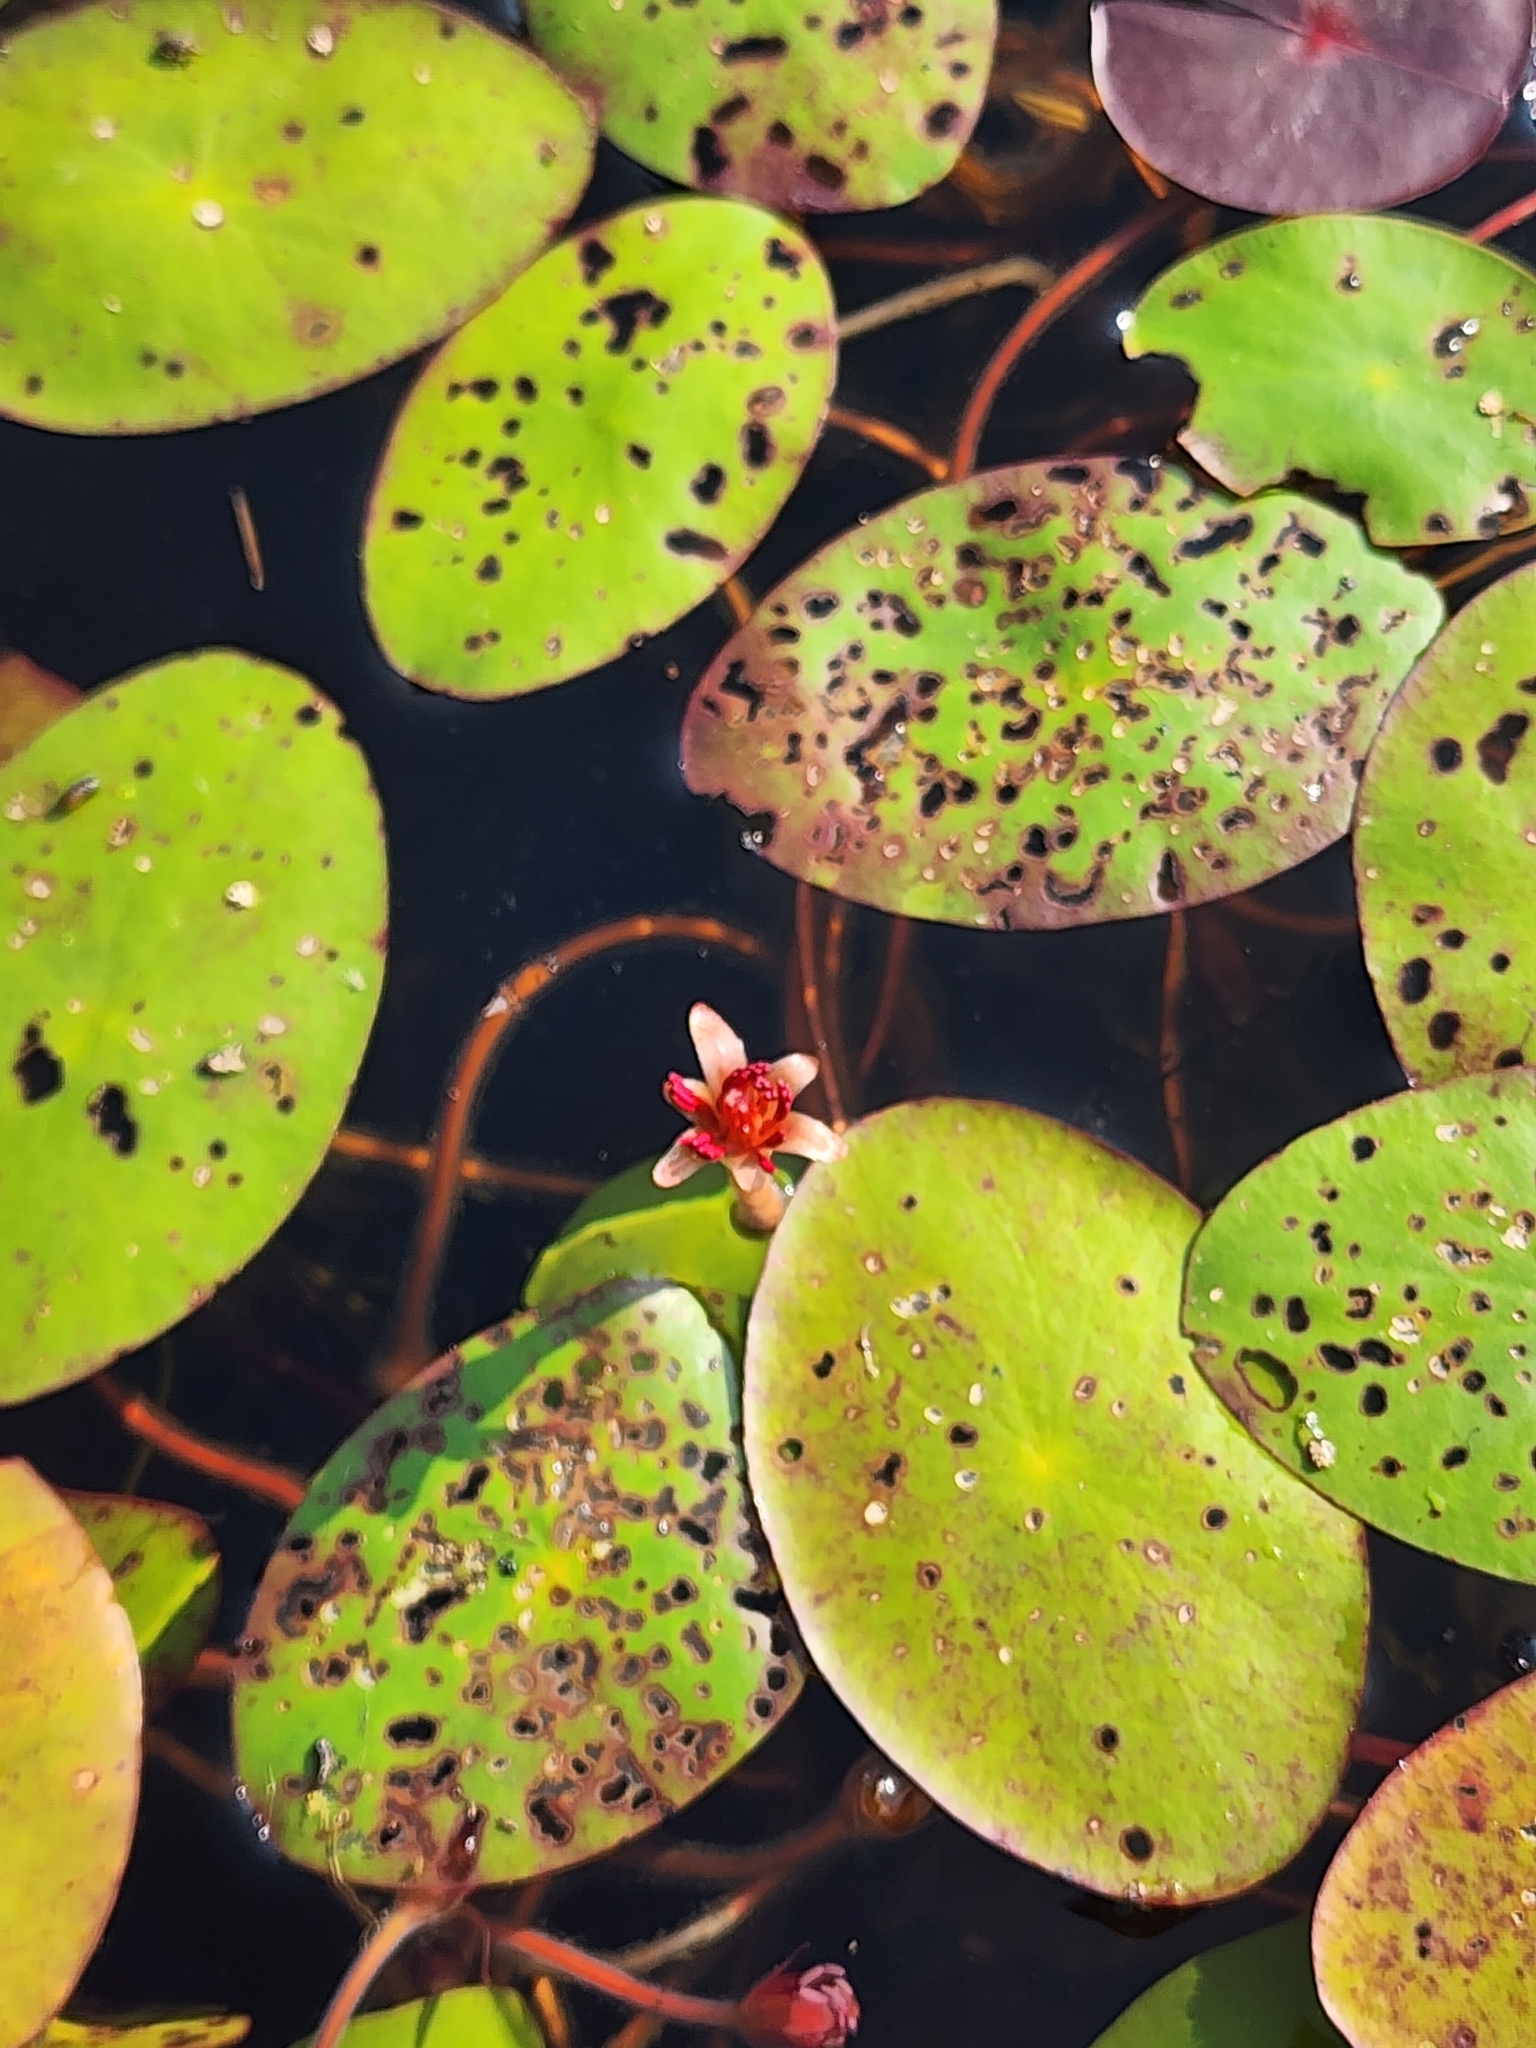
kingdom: Plantae
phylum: Tracheophyta
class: Magnoliopsida
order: Nymphaeales
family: Cabombaceae
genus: Brasenia
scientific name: Brasenia schreberi
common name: Water-shield
